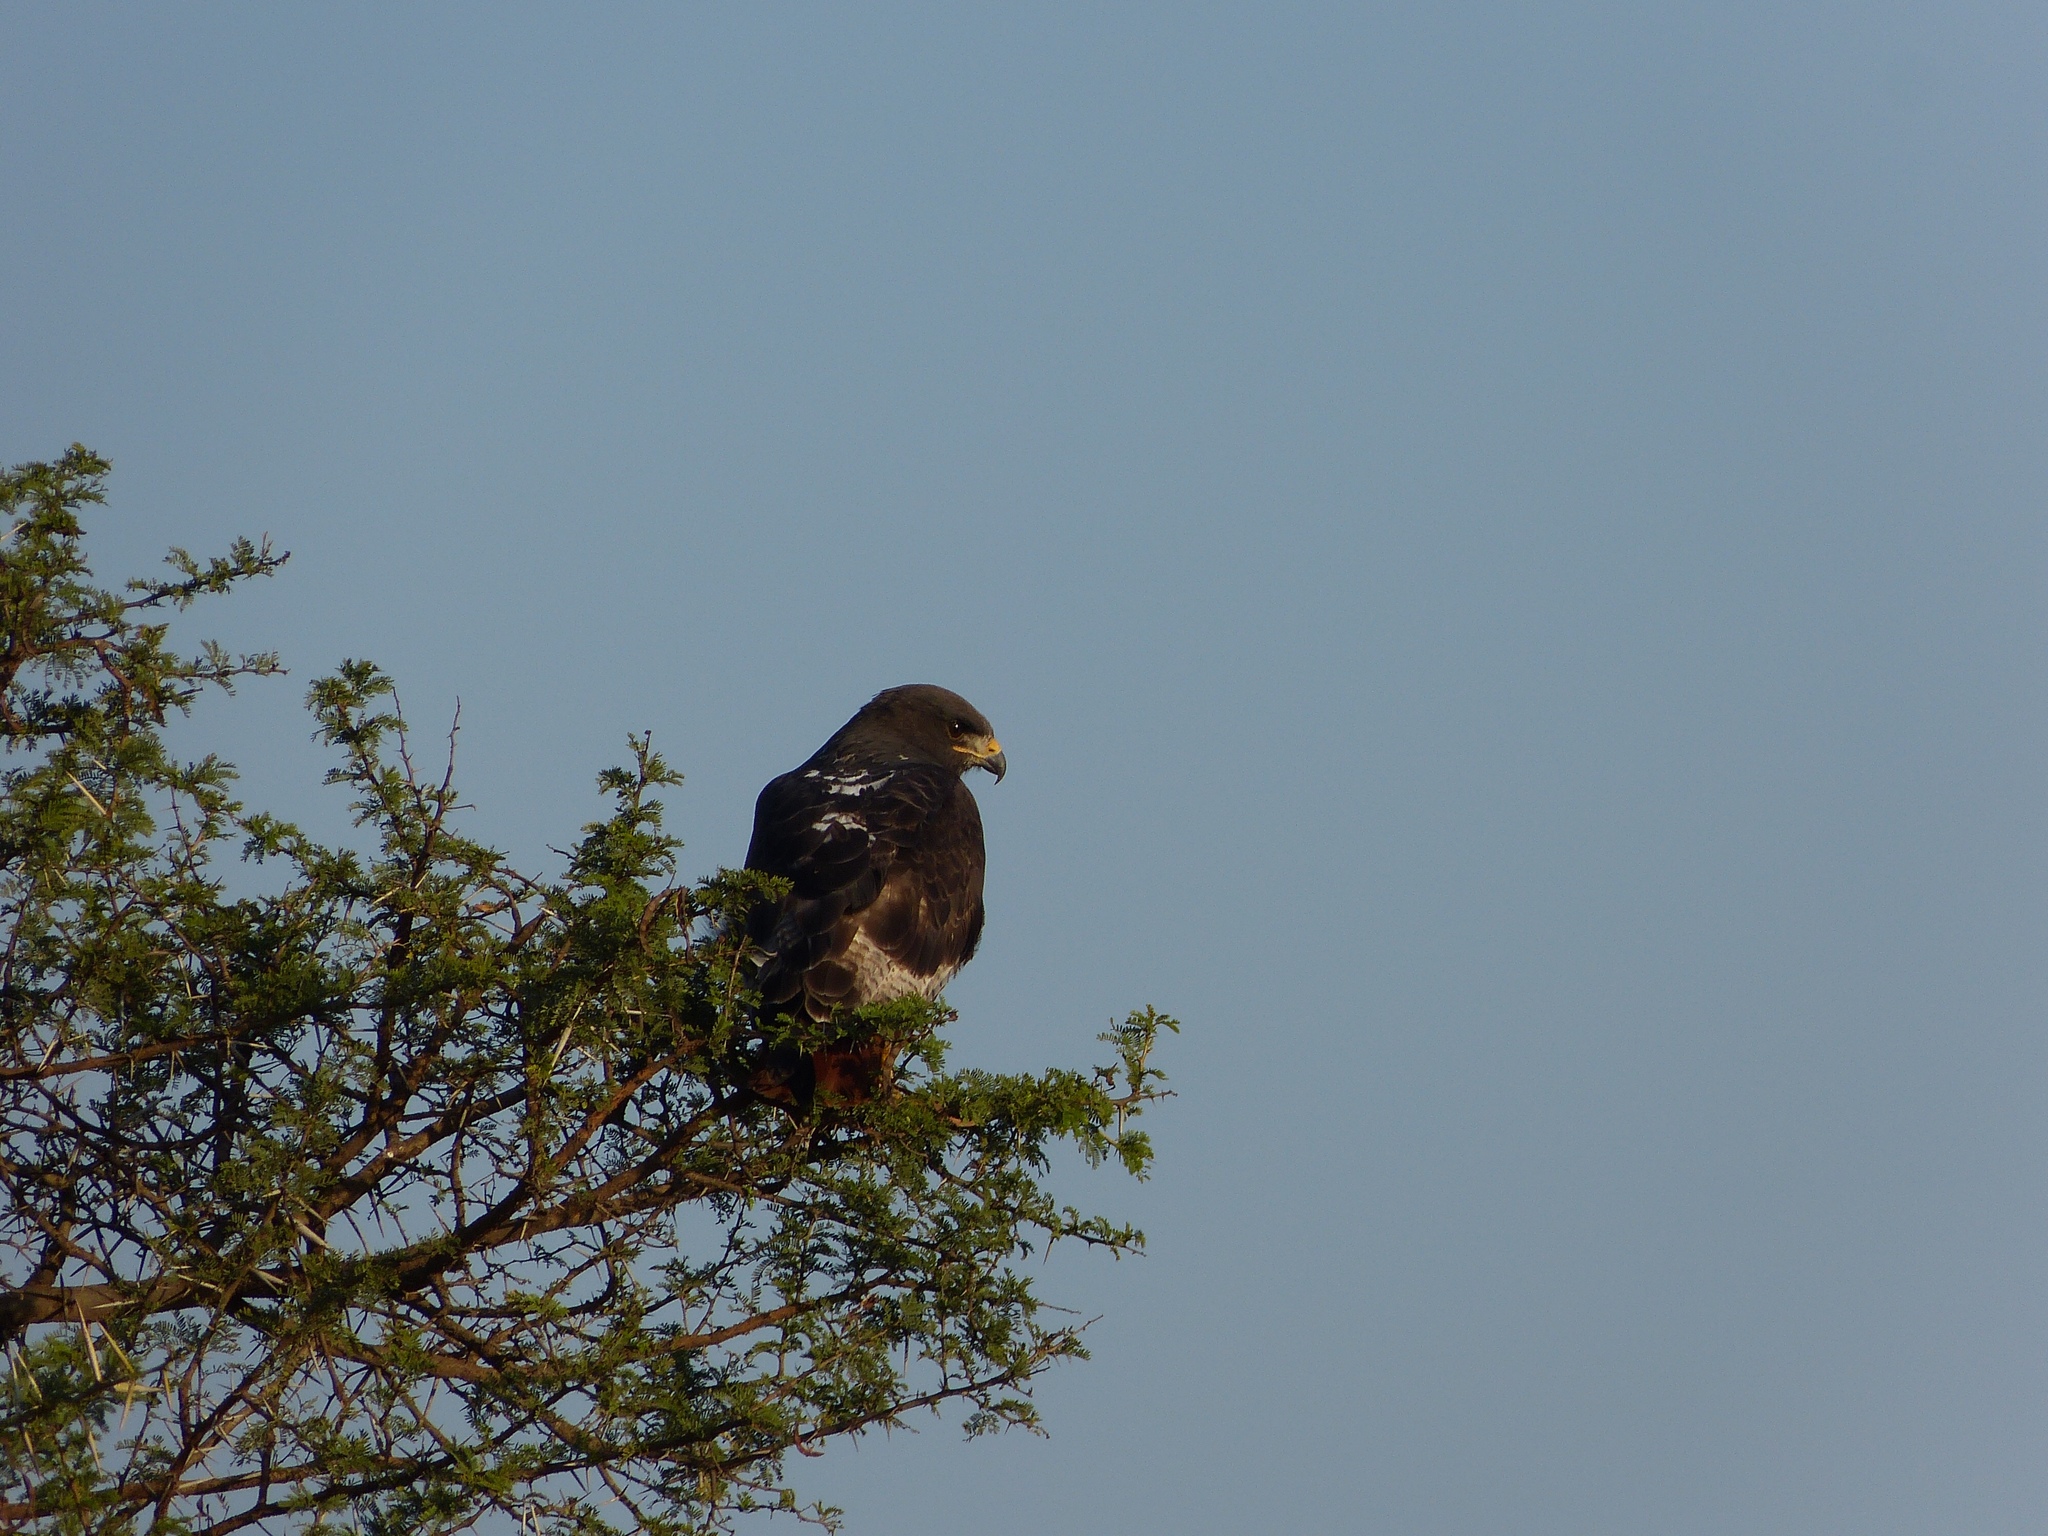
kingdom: Animalia
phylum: Chordata
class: Aves
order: Accipitriformes
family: Accipitridae
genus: Buteo
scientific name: Buteo rufofuscus
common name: Jackal buzzard
